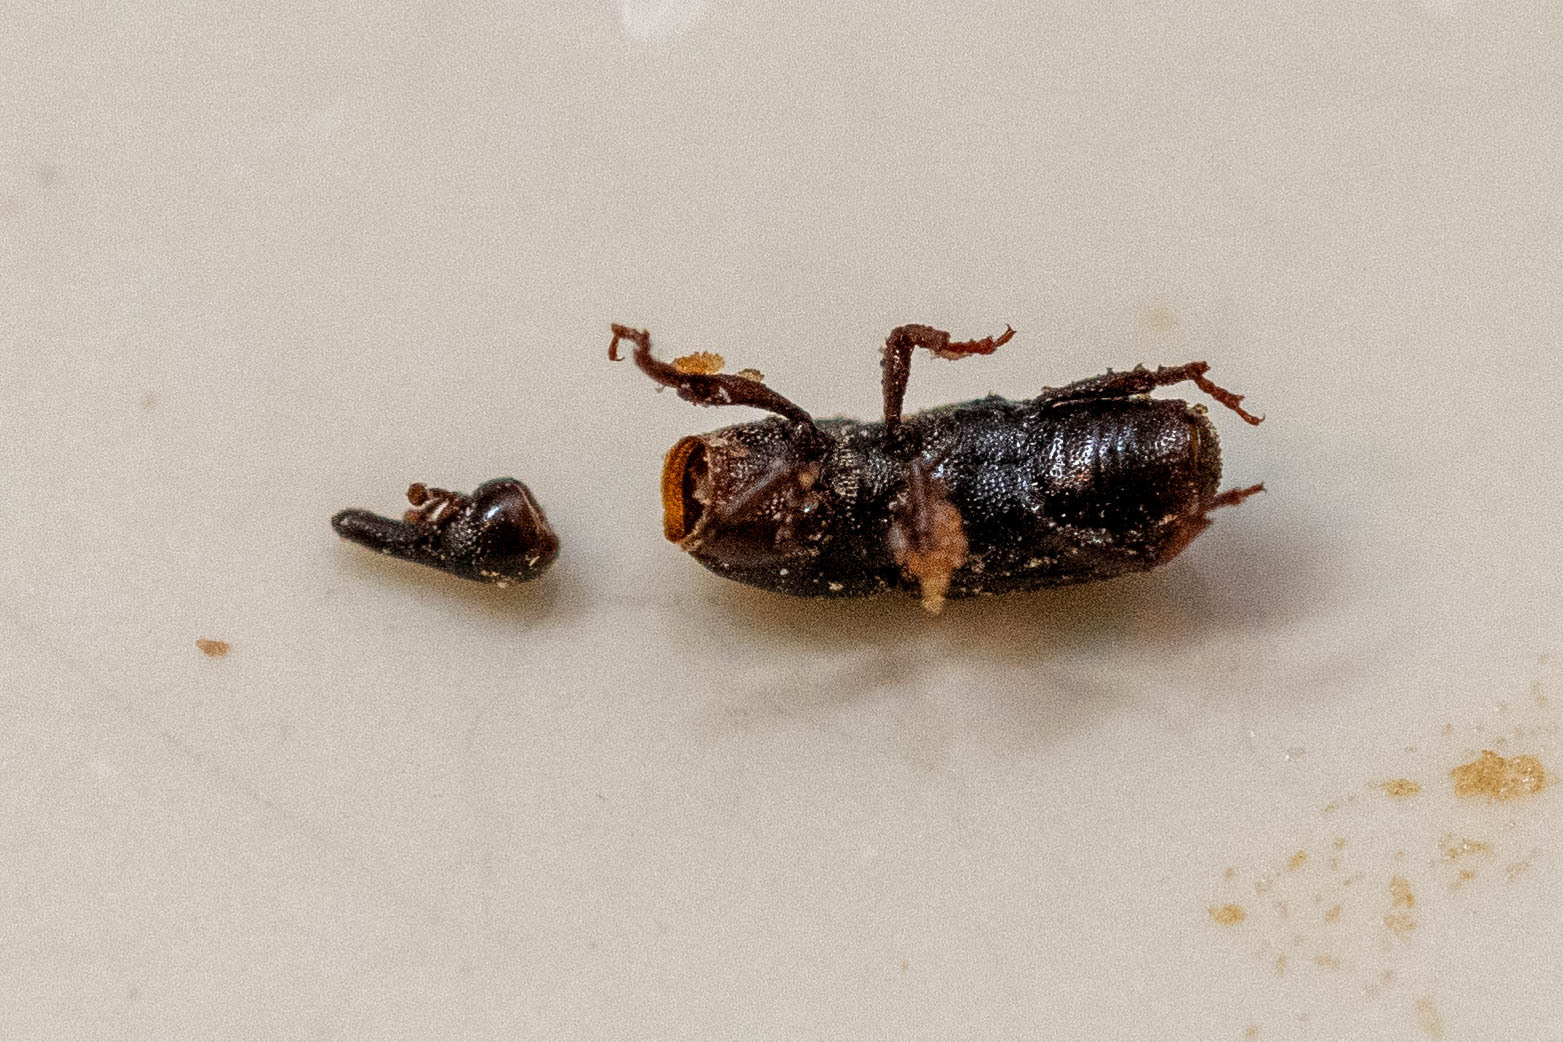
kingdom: Animalia
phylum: Arthropoda
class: Insecta
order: Coleoptera
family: Dryophthoridae
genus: Sitophilus
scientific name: Sitophilus linearis
